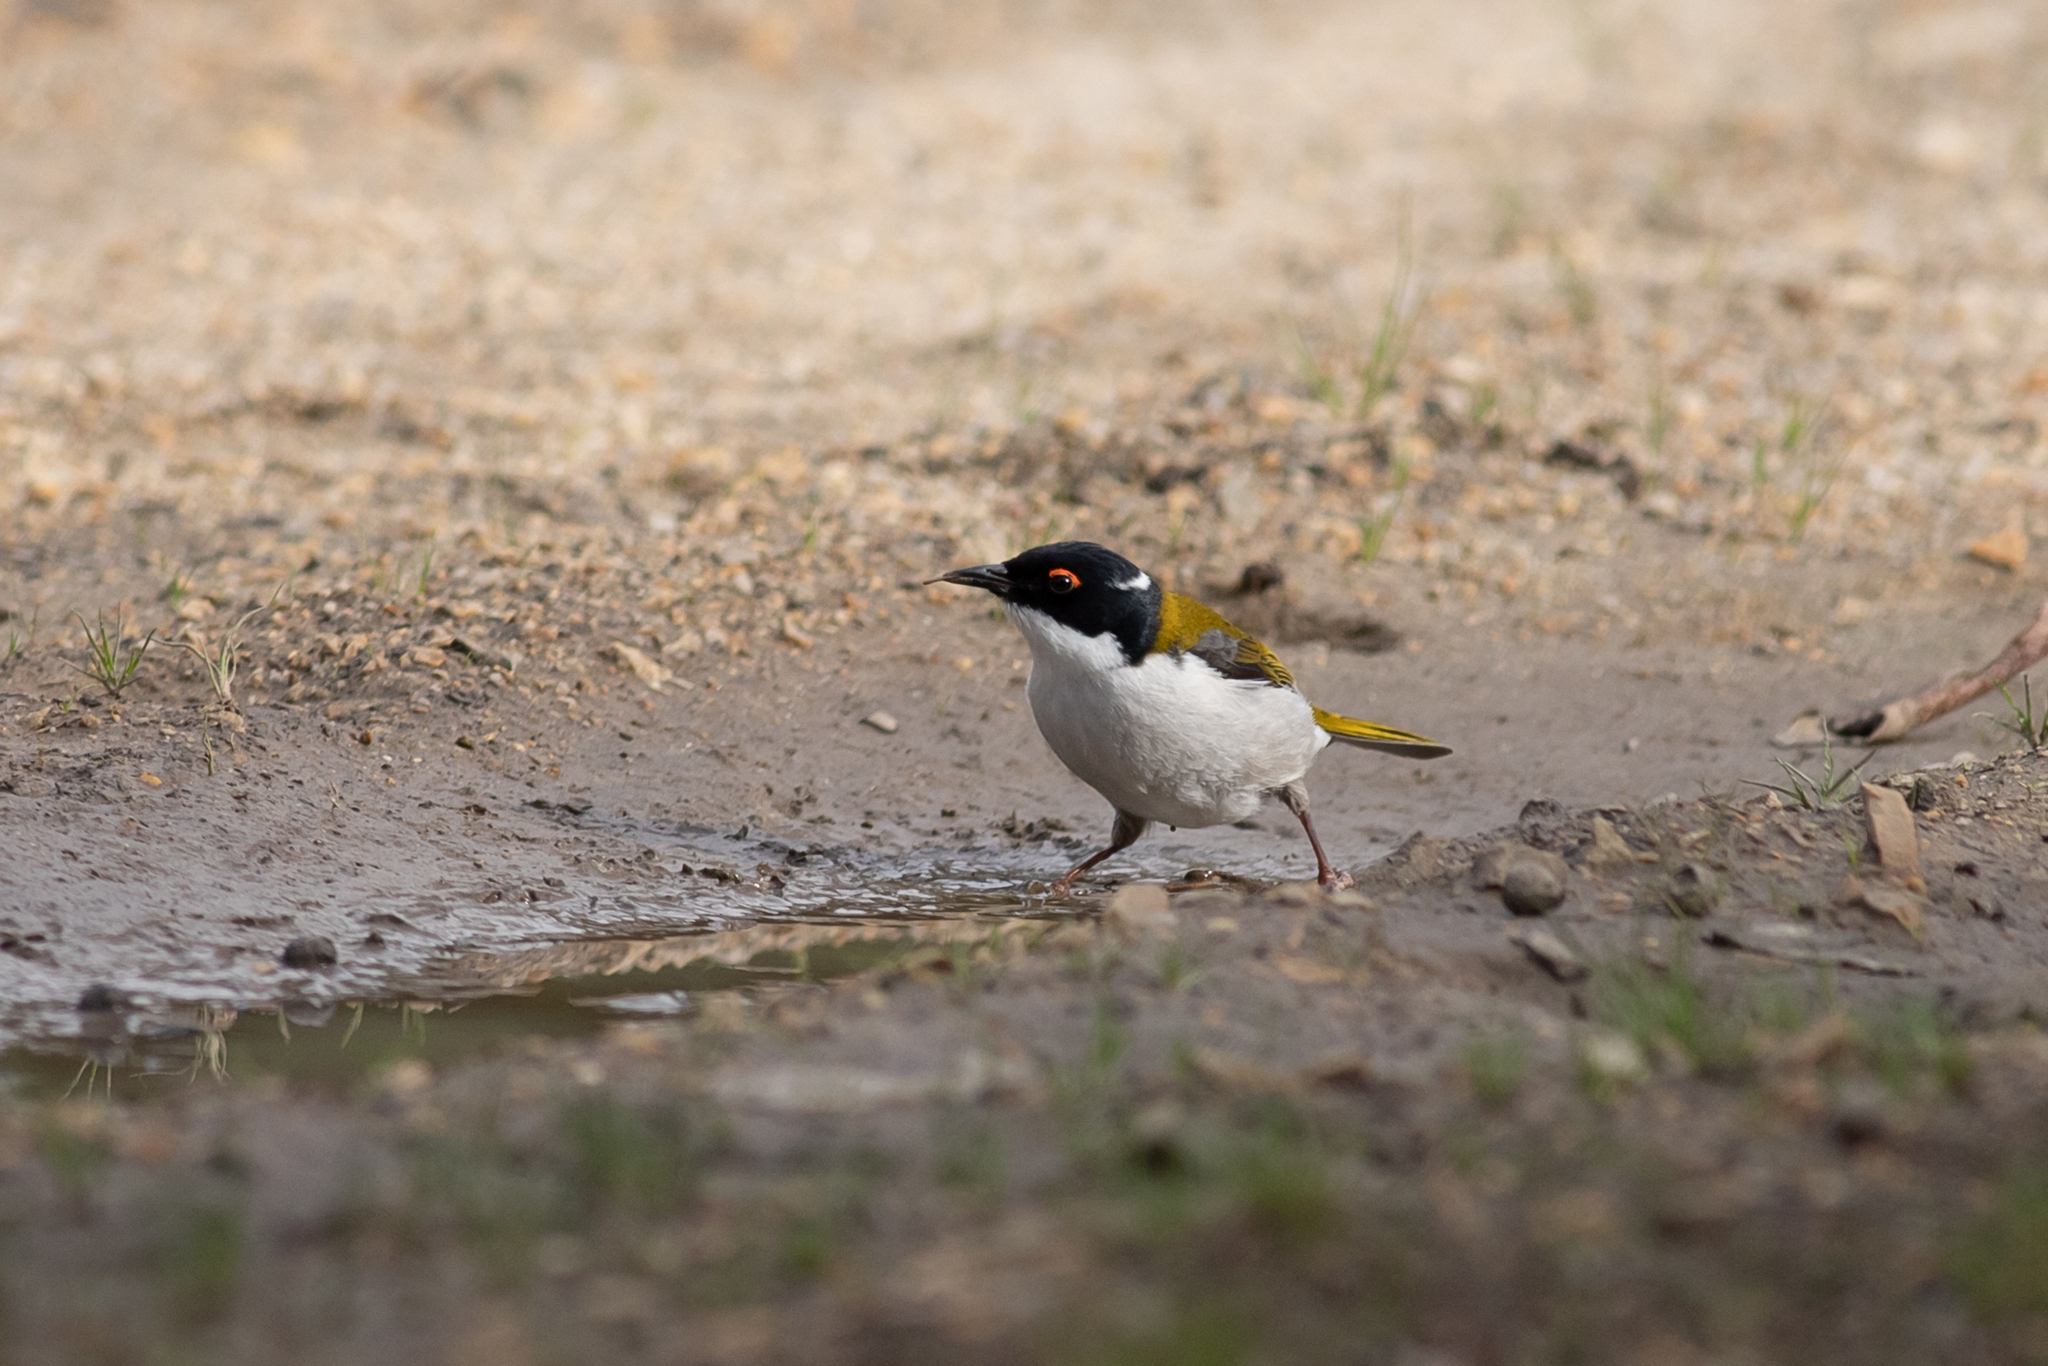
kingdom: Animalia
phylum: Chordata
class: Aves
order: Passeriformes
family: Meliphagidae
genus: Melithreptus
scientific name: Melithreptus lunatus
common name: White-naped honeyeater
